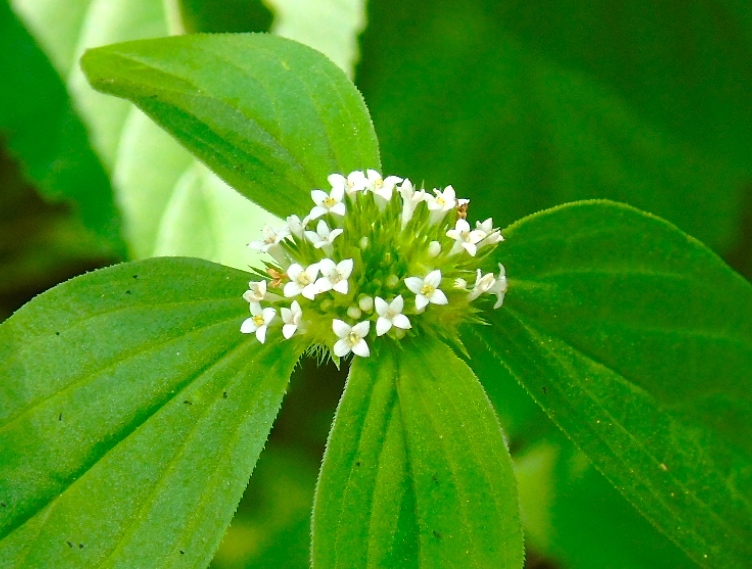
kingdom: Plantae
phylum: Tracheophyta
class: Magnoliopsida
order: Gentianales
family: Rubiaceae
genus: Spermacoce
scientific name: Spermacoce
